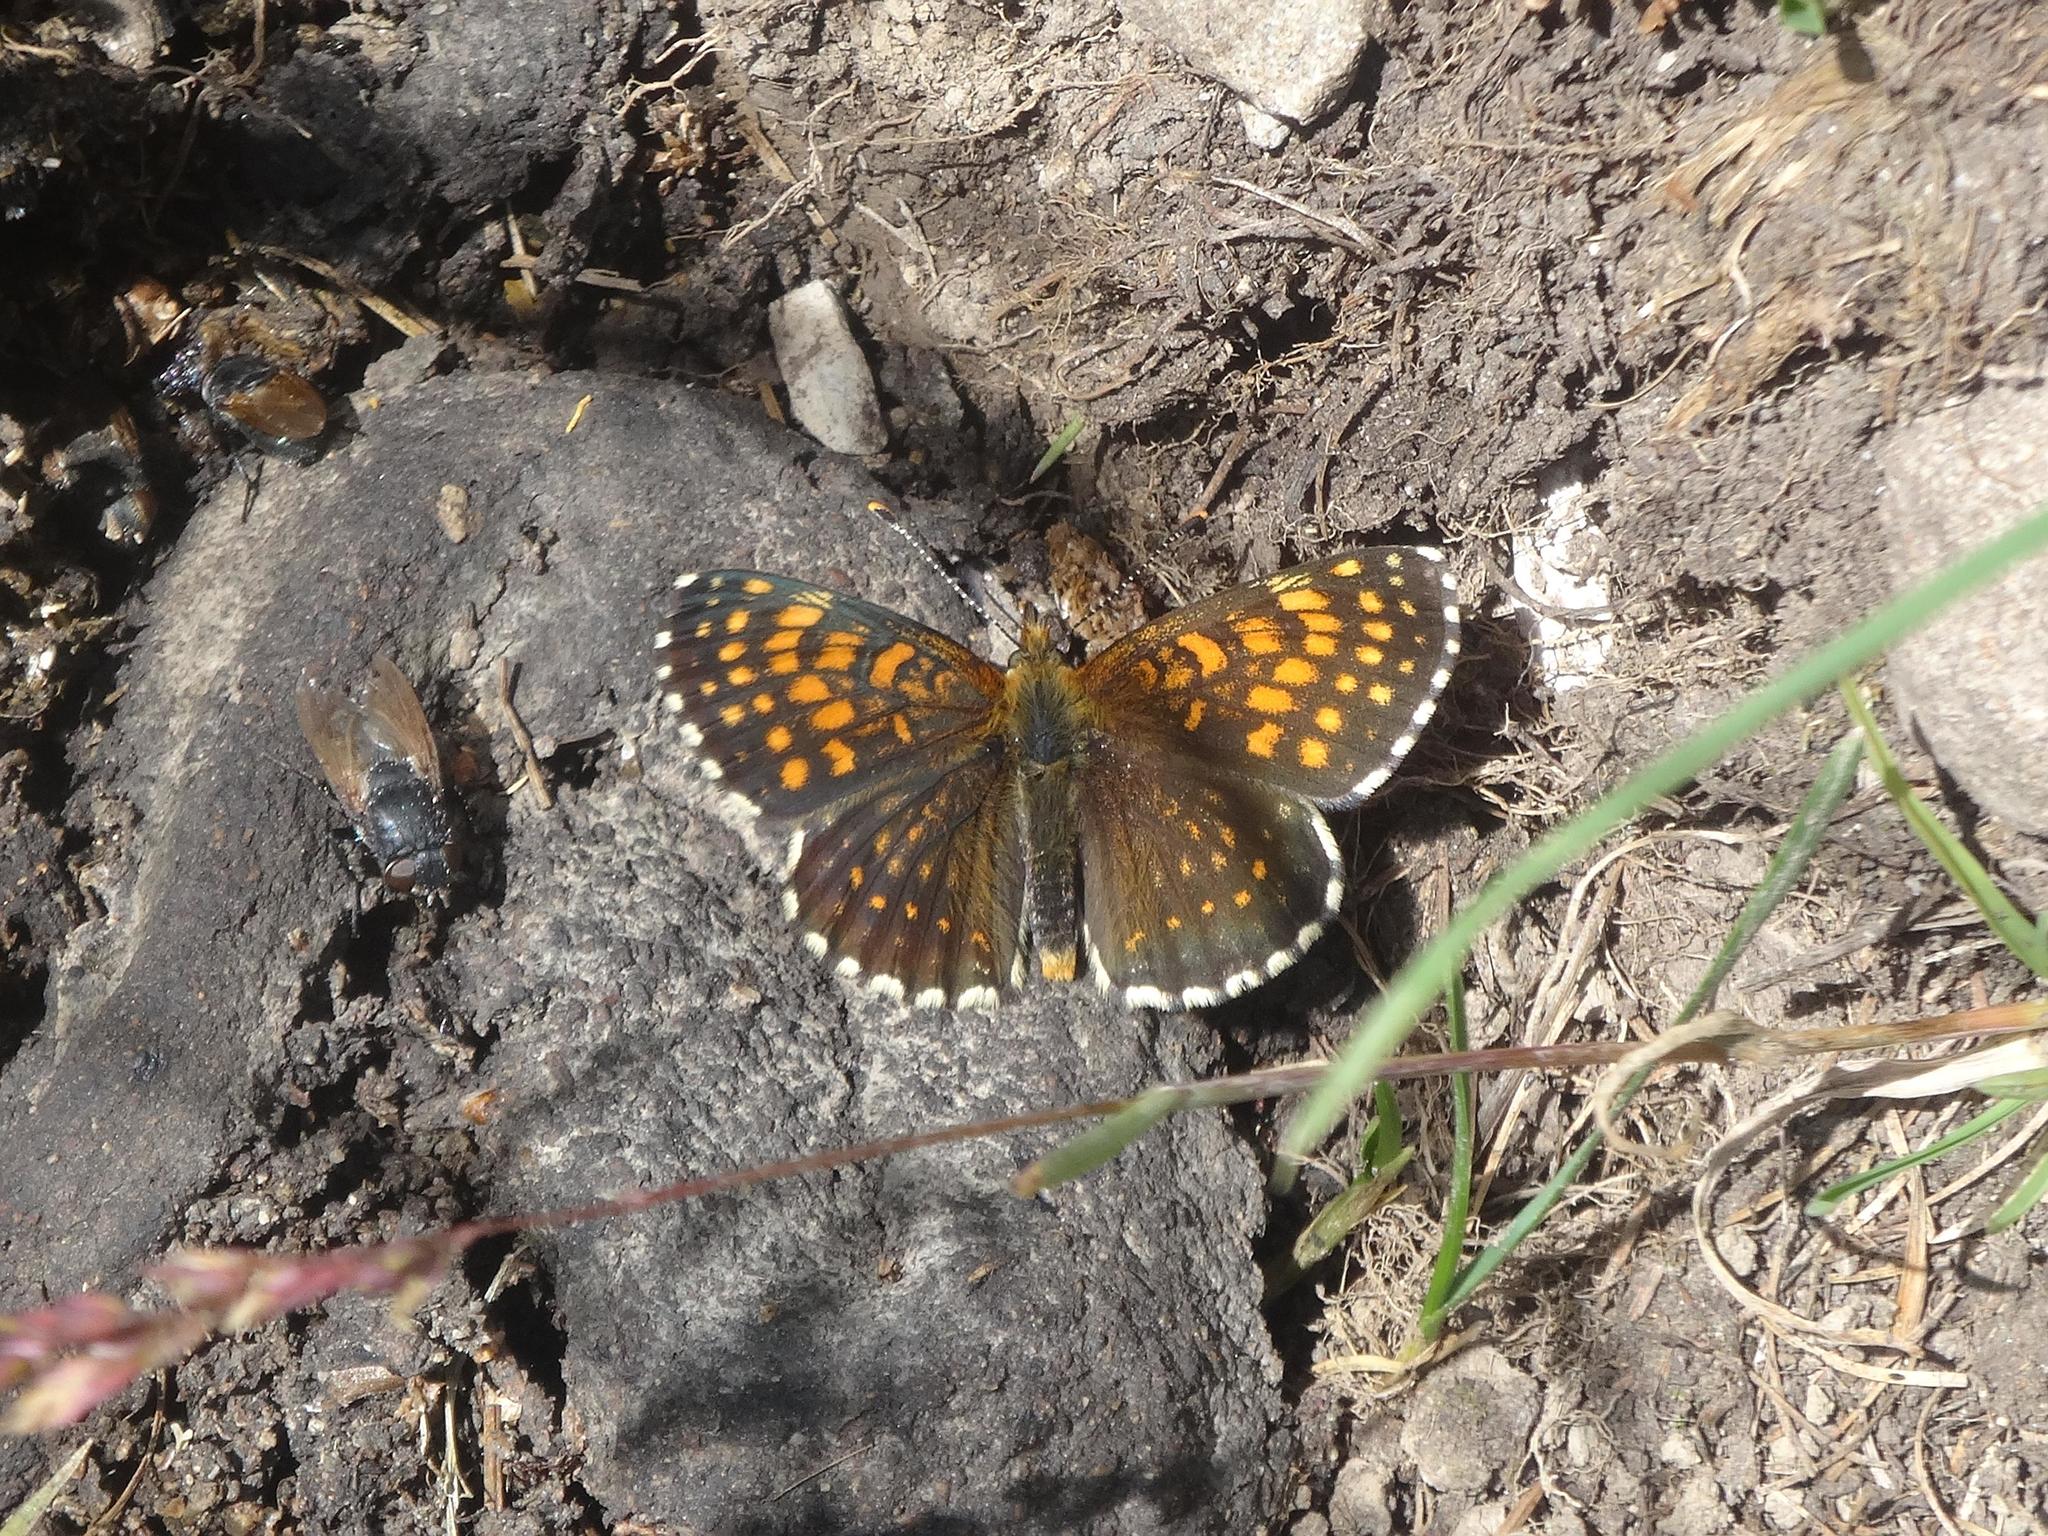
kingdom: Animalia
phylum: Arthropoda
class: Insecta
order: Lepidoptera
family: Nymphalidae
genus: Melitaea
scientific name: Melitaea diamina
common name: False heath fritillary
